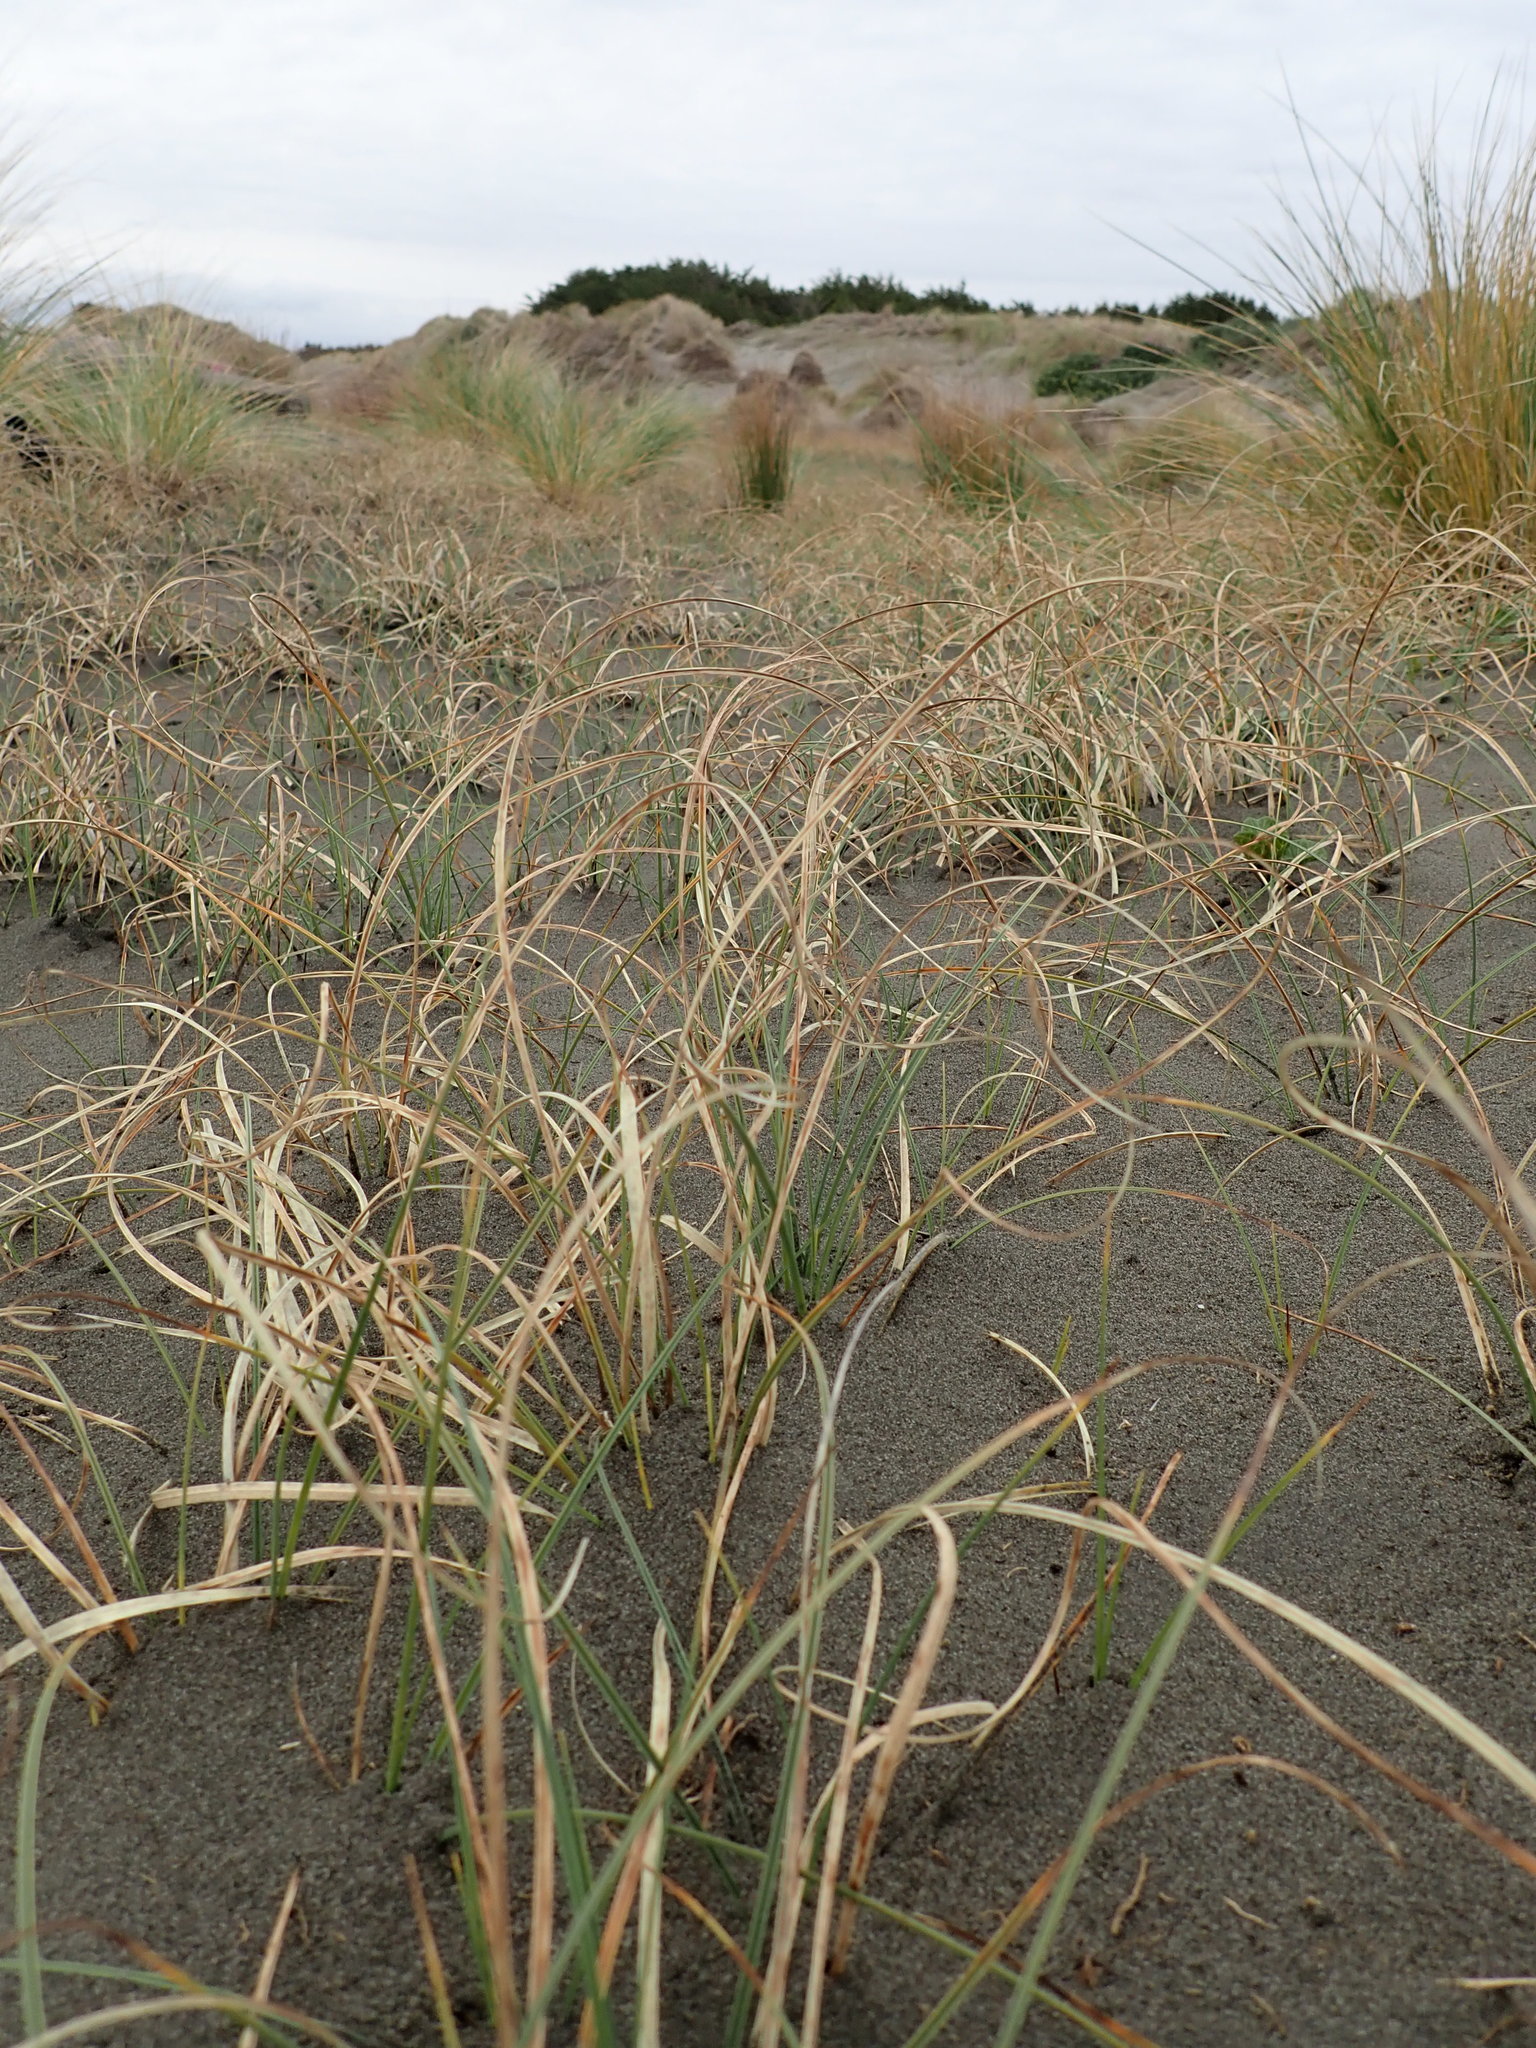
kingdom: Plantae
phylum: Tracheophyta
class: Liliopsida
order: Poales
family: Cyperaceae
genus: Carex
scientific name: Carex pumila
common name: Dwarf sedge
